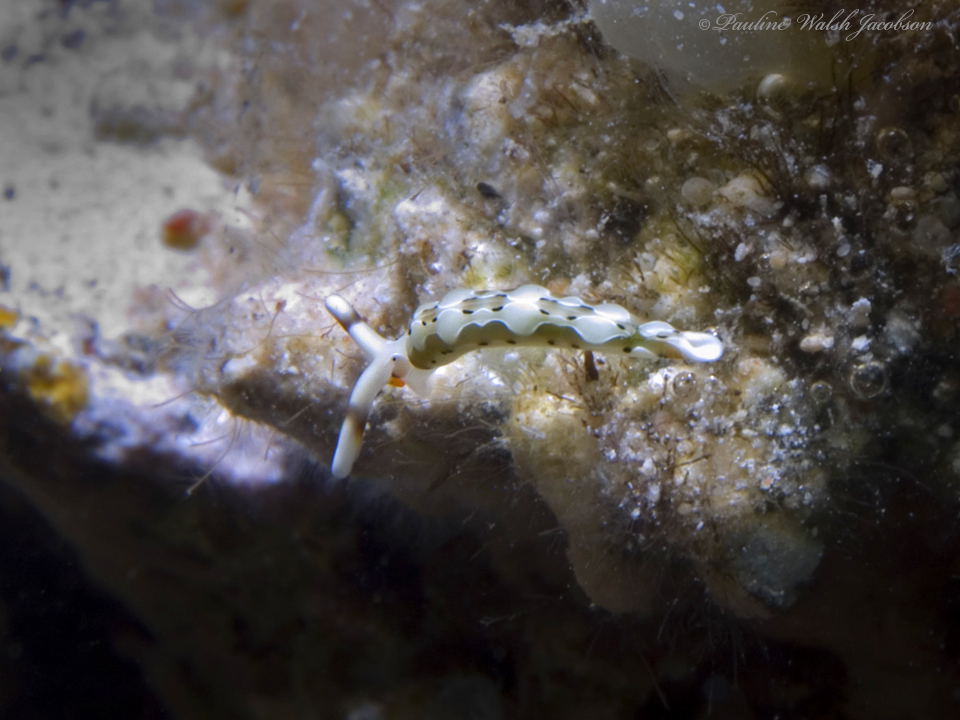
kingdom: Animalia
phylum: Mollusca
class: Gastropoda
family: Plakobranchidae
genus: Thuridilla
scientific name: Thuridilla decorata
